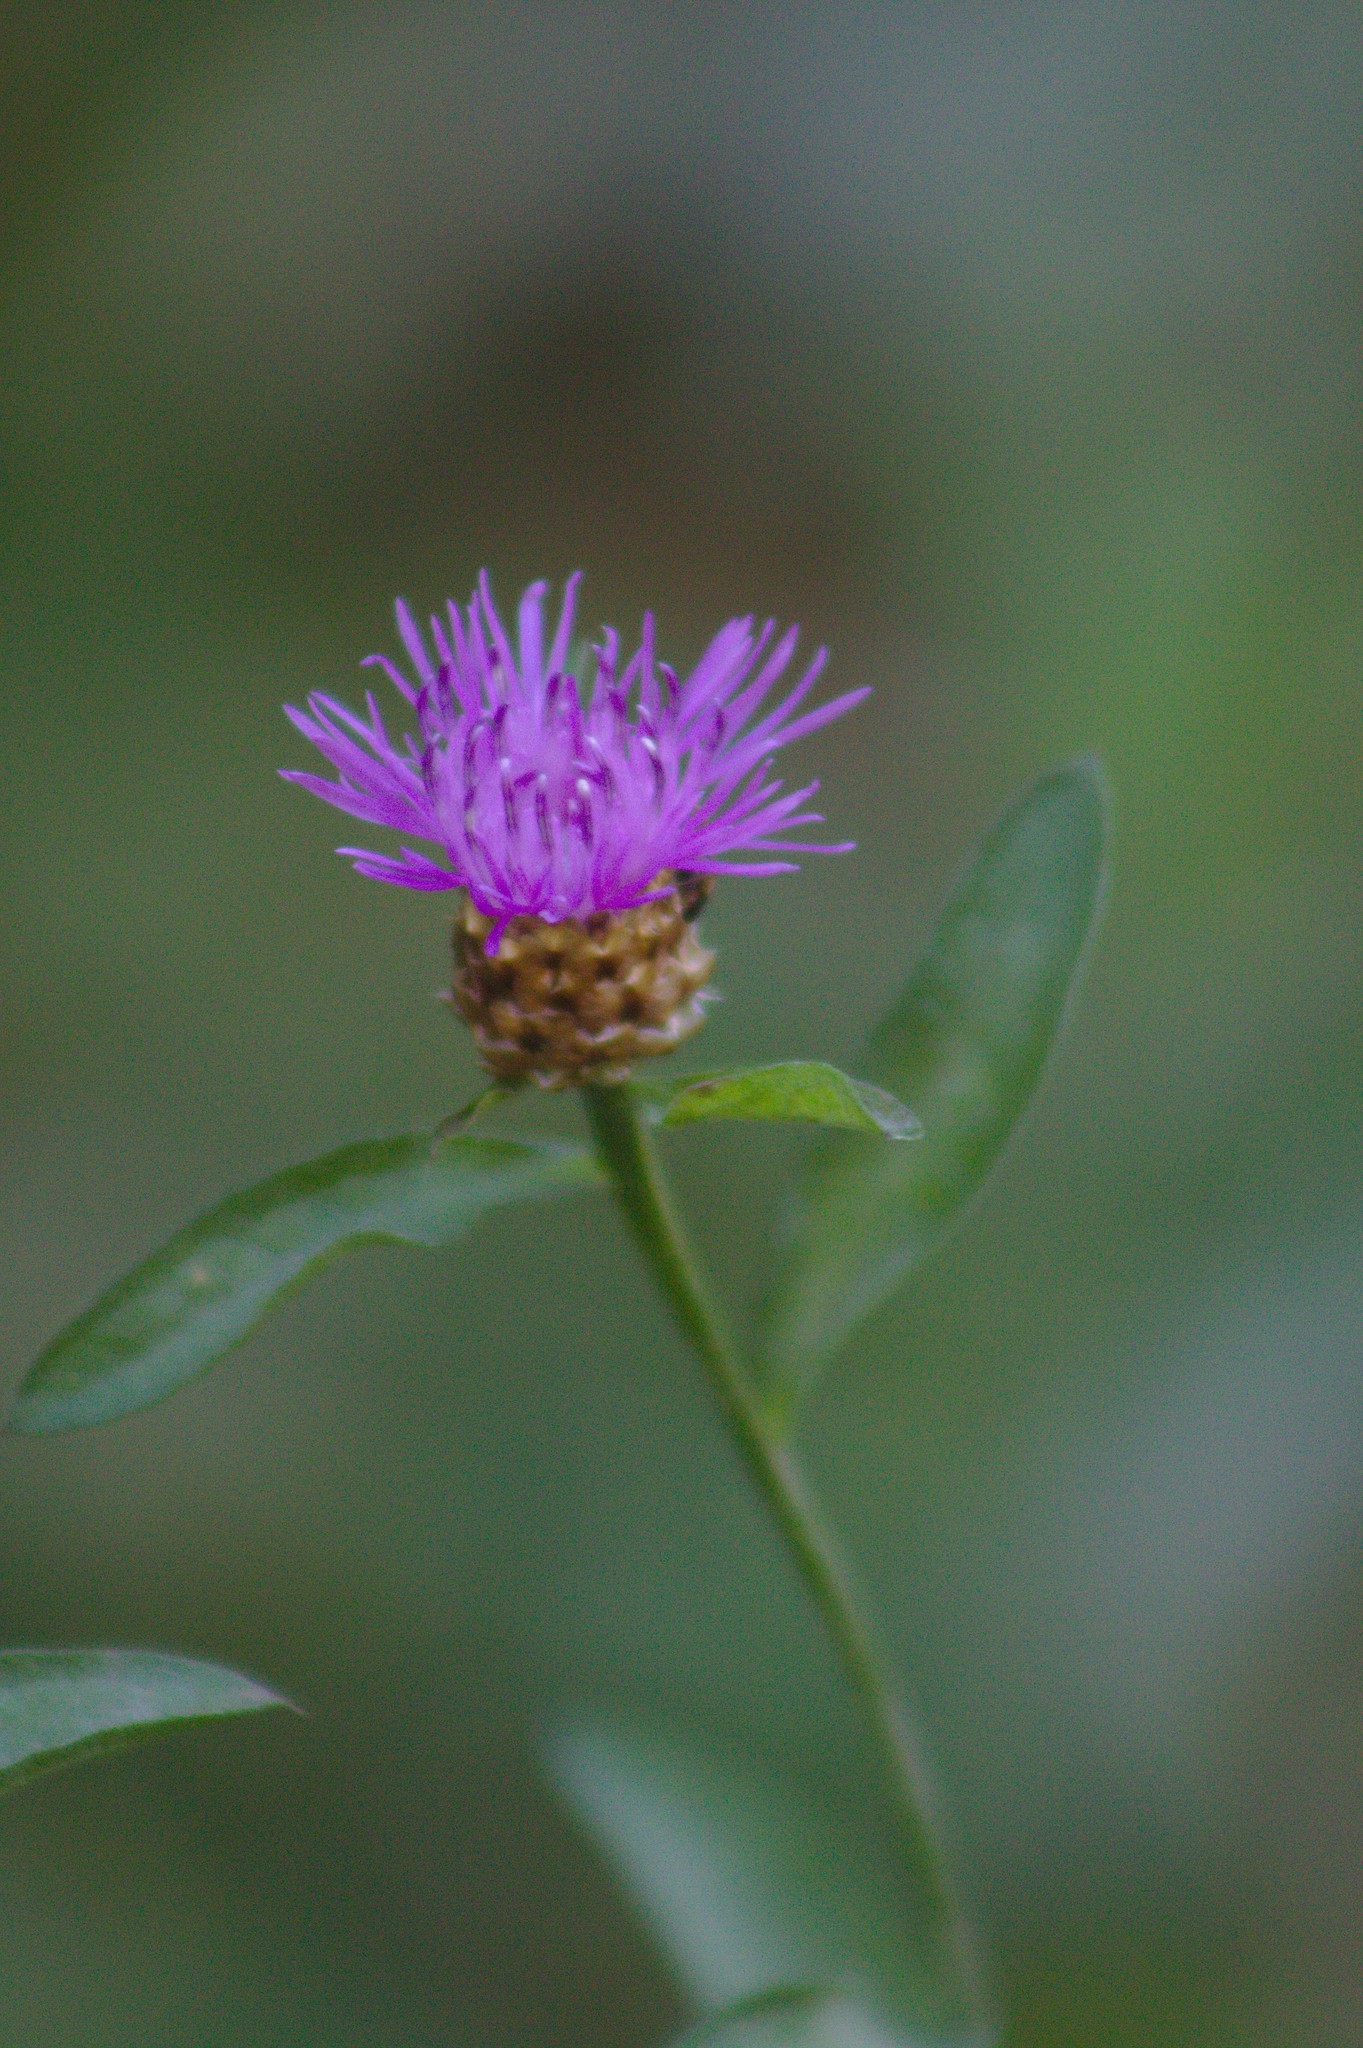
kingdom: Plantae
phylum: Tracheophyta
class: Magnoliopsida
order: Asterales
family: Asteraceae
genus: Centaurea
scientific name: Centaurea jacea
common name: Brown knapweed
